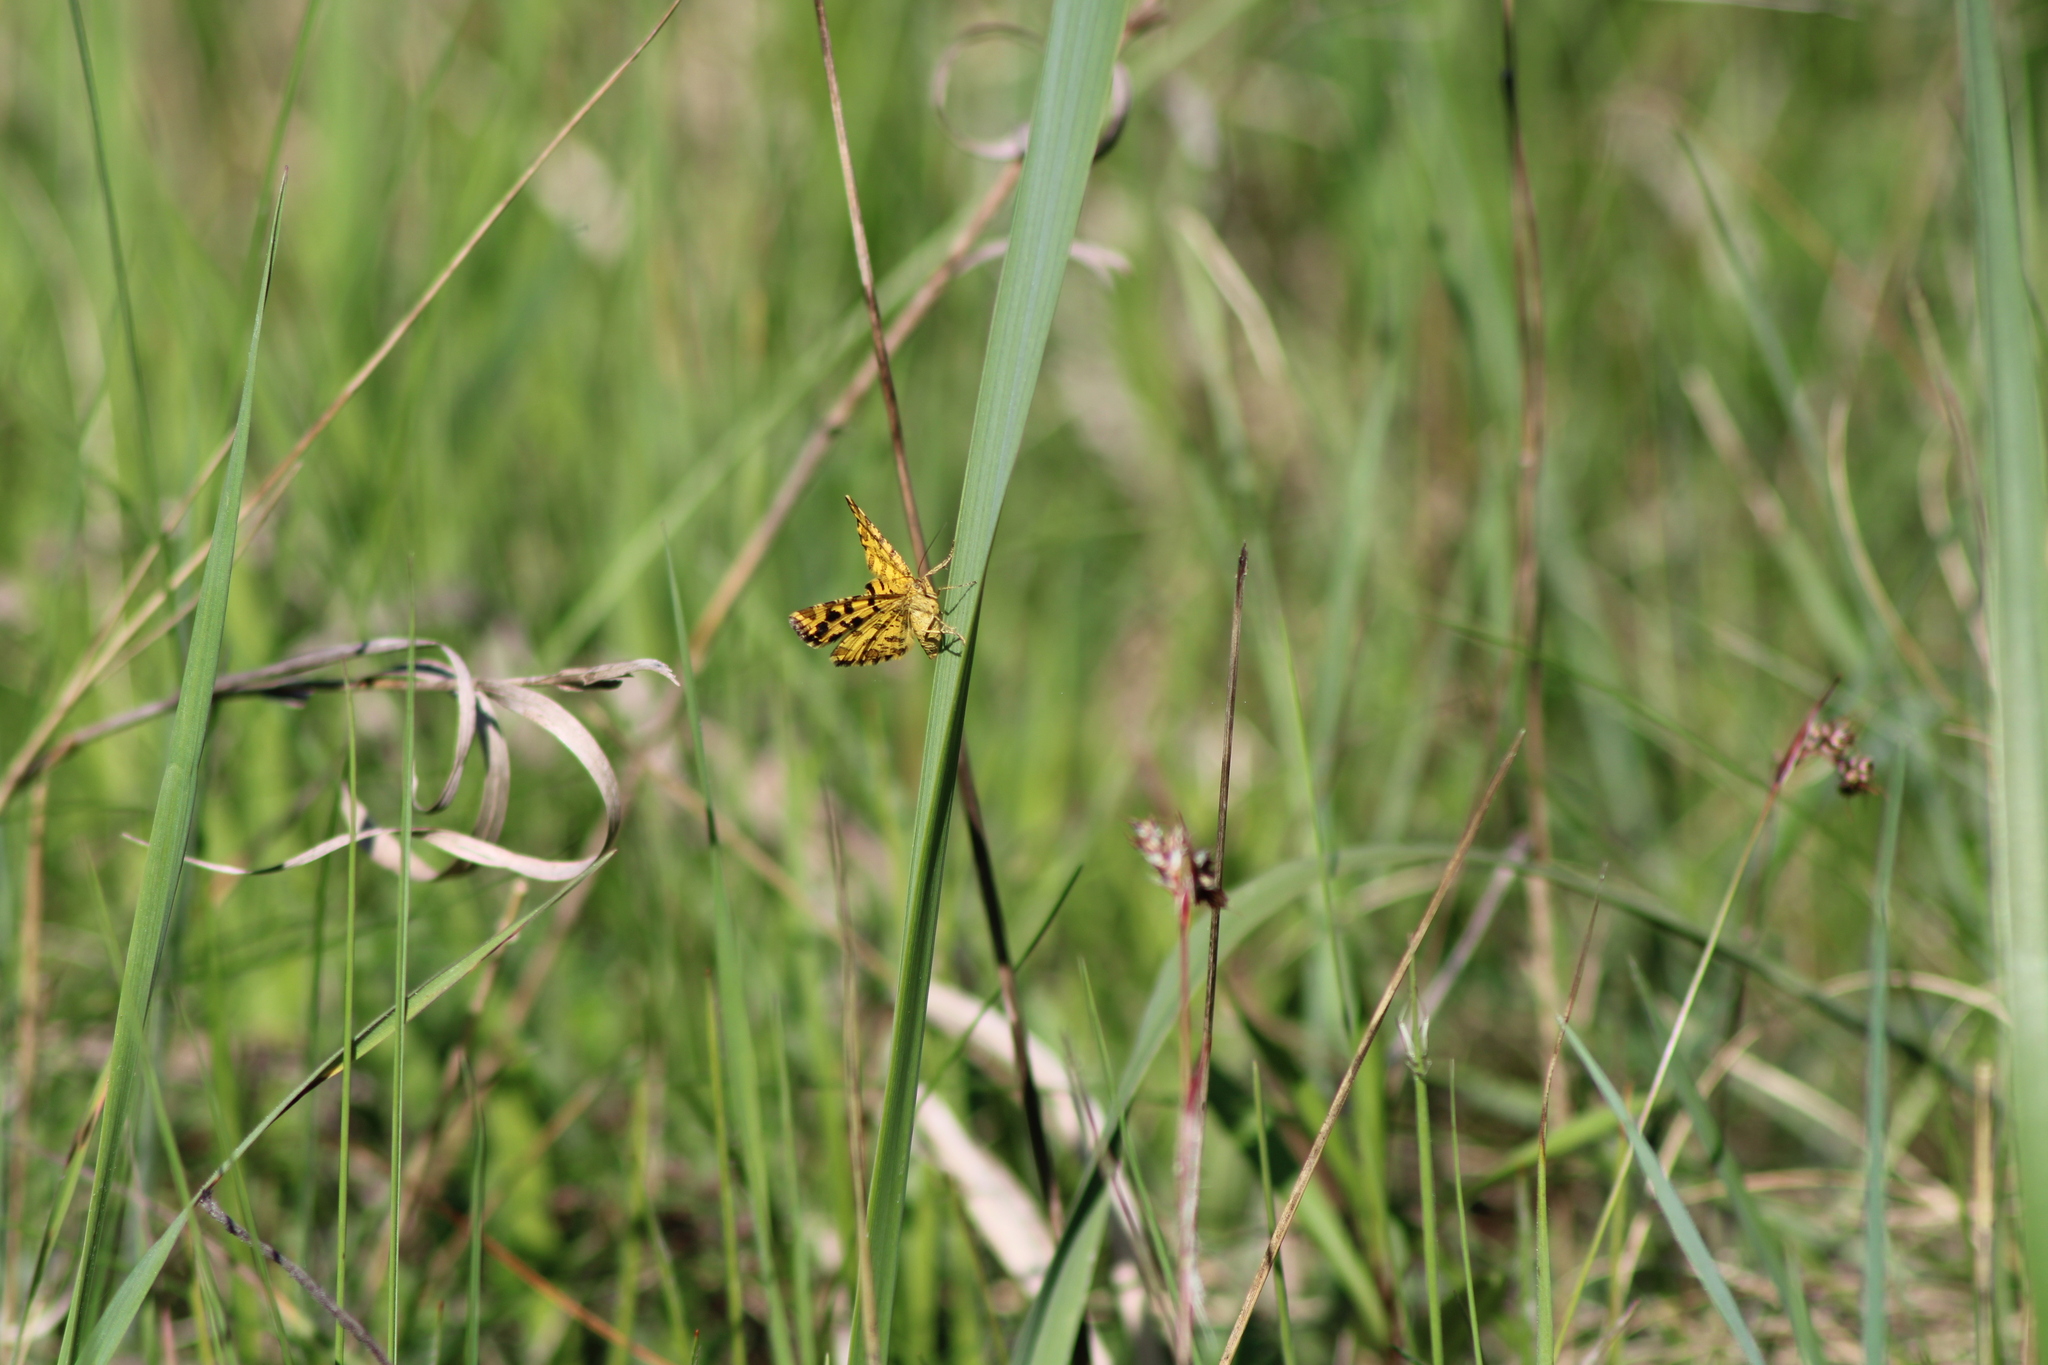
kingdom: Animalia
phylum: Arthropoda
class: Insecta
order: Lepidoptera
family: Geometridae
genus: Pseudopanthera
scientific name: Pseudopanthera macularia
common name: Speckled yellow
